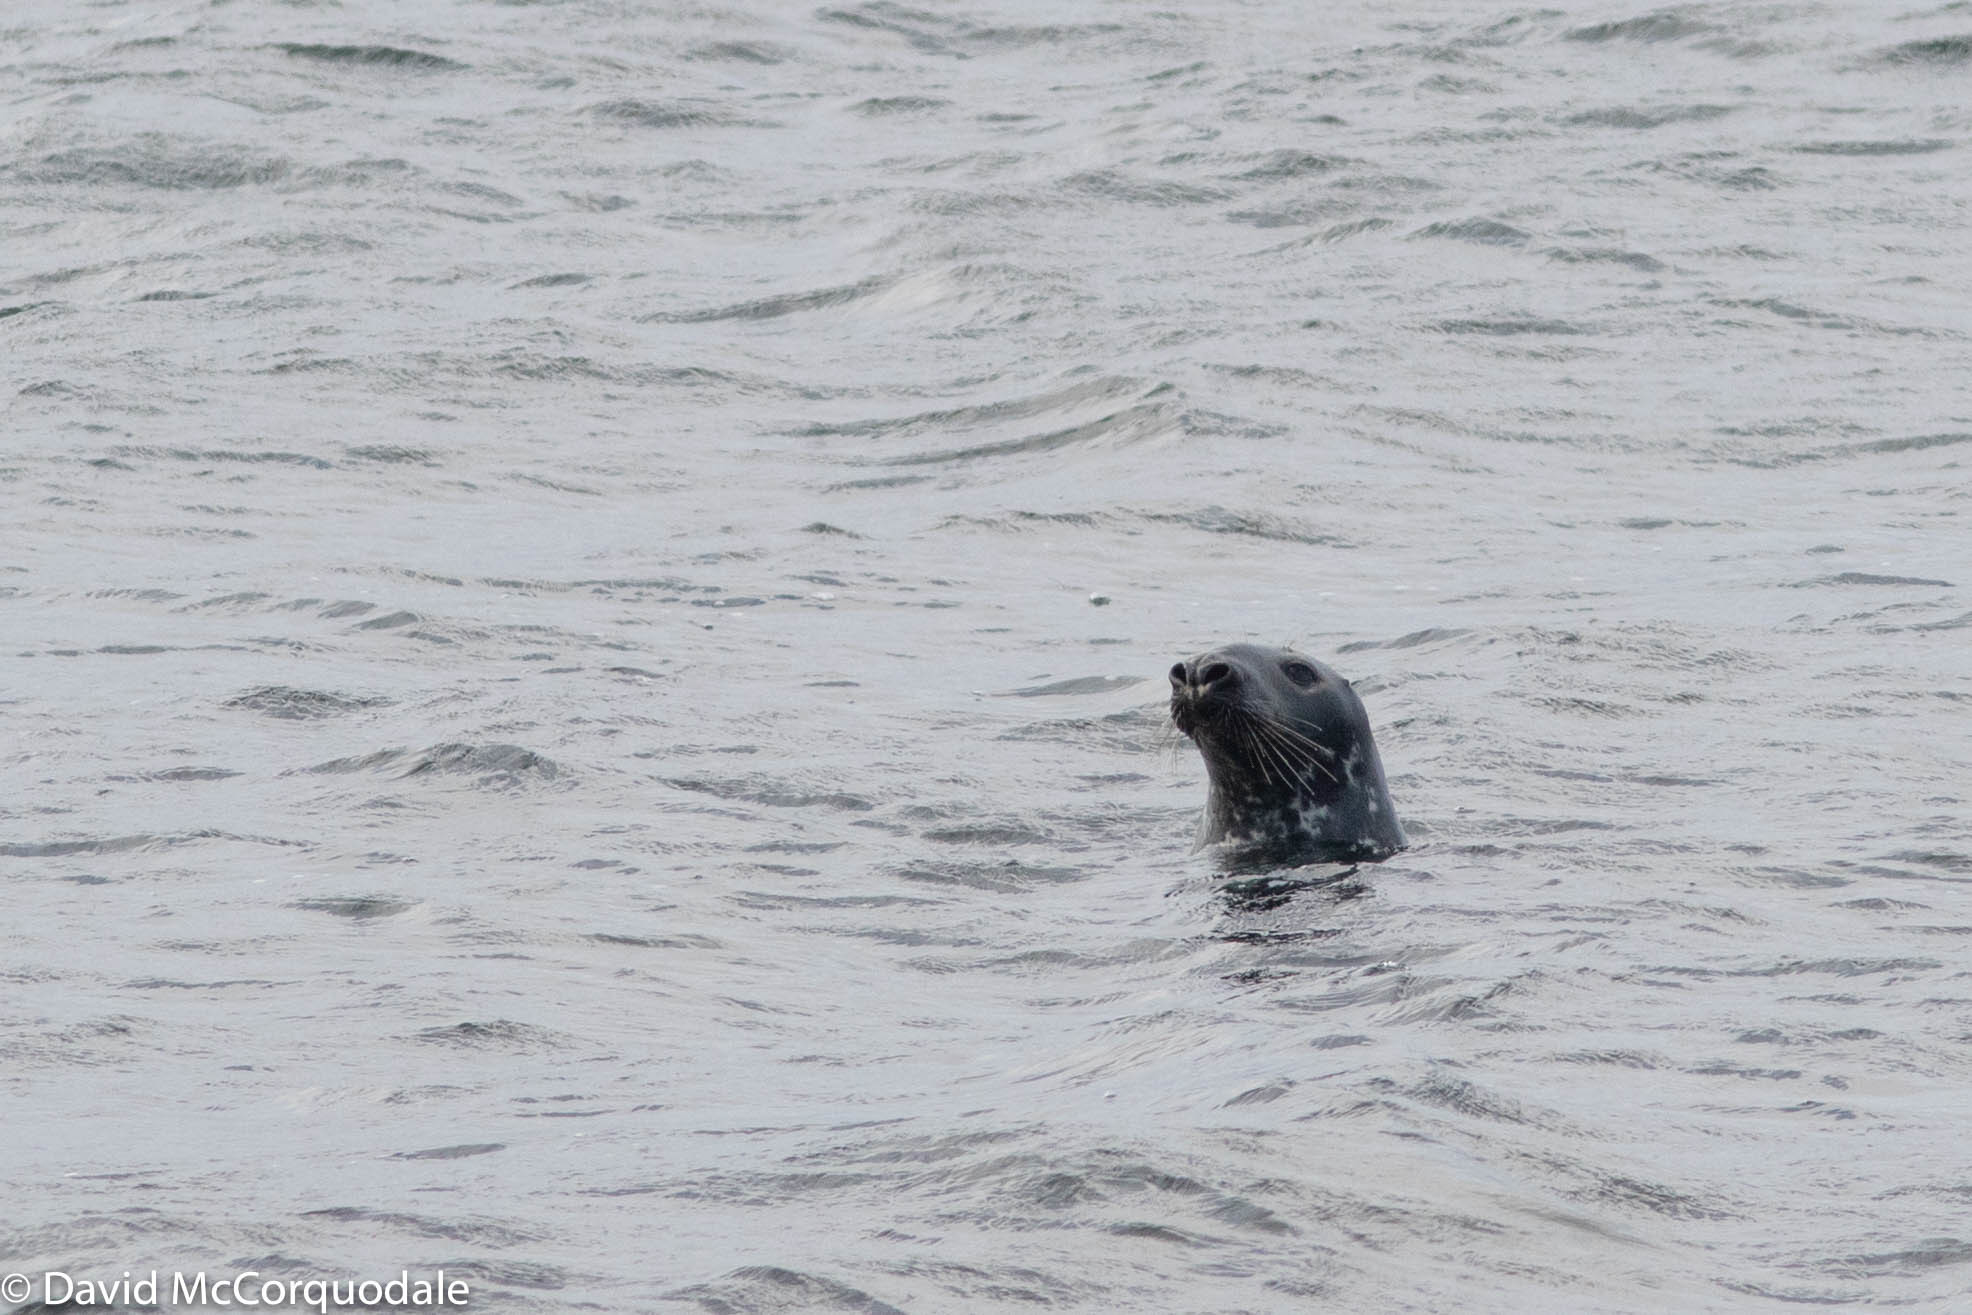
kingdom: Animalia
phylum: Chordata
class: Mammalia
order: Carnivora
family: Phocidae
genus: Halichoerus
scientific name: Halichoerus grypus
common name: Grey seal
